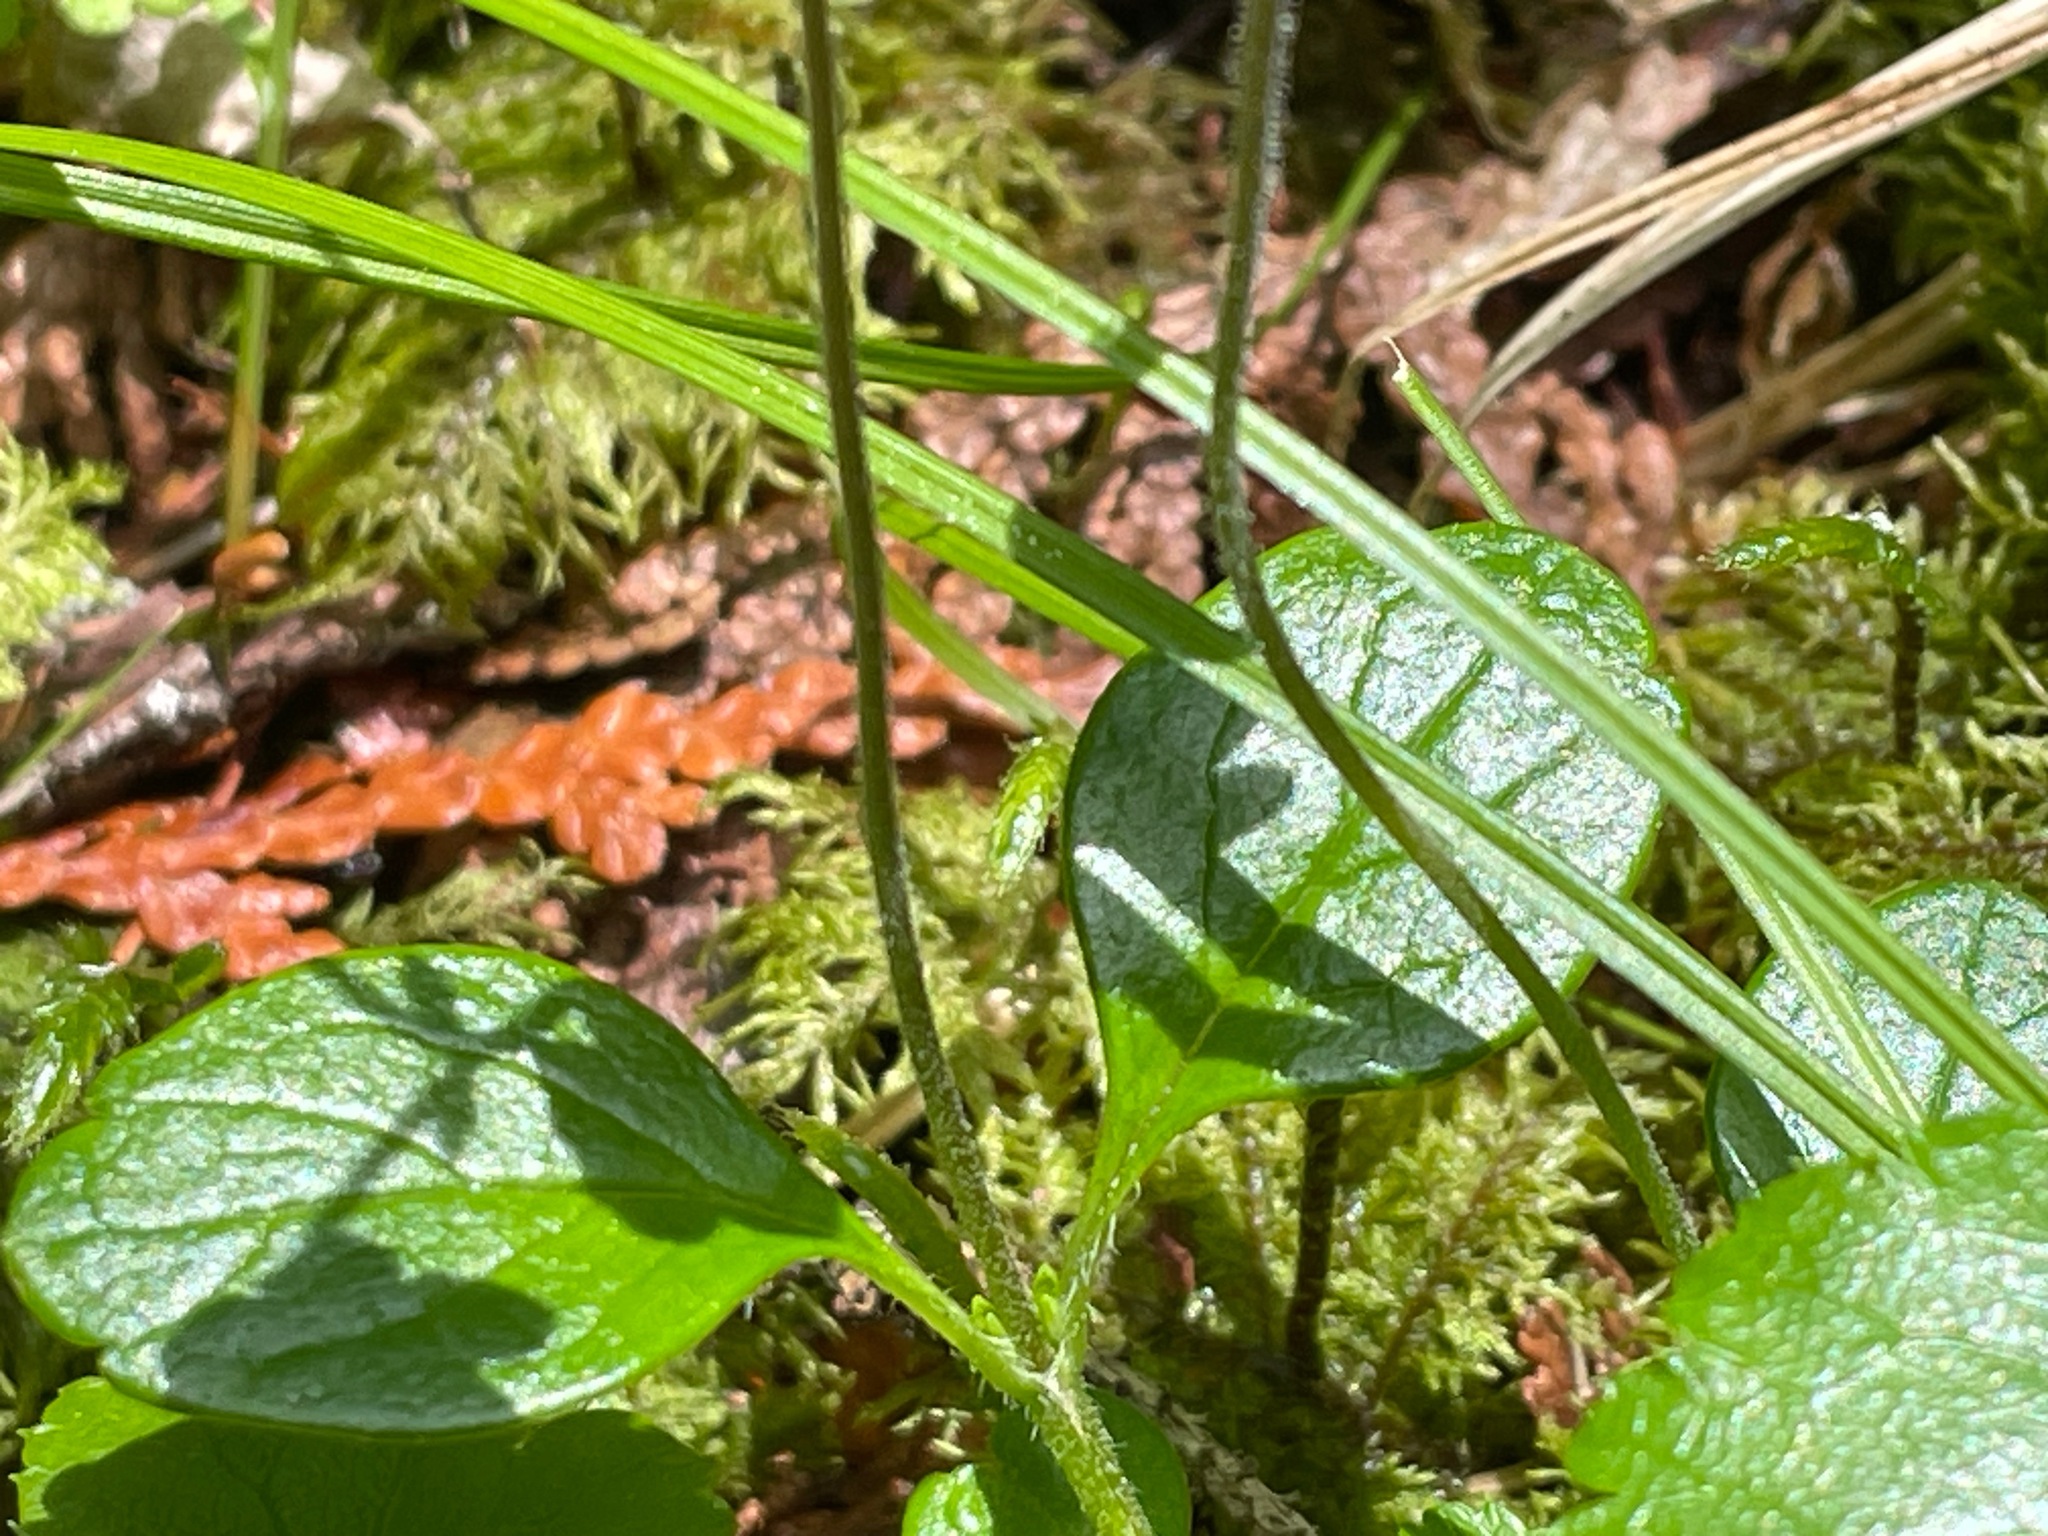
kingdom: Plantae
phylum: Tracheophyta
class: Magnoliopsida
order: Dipsacales
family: Caprifoliaceae
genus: Linnaea
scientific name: Linnaea borealis
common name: Twinflower
